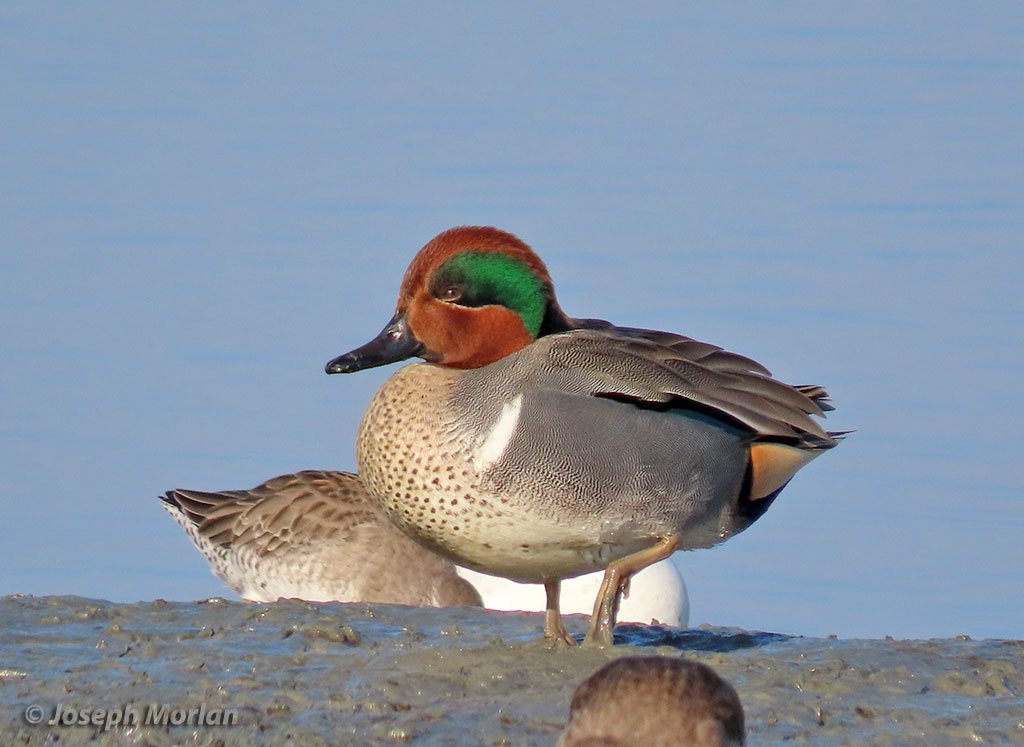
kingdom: Animalia
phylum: Chordata
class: Aves
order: Anseriformes
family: Anatidae
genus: Anas
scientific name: Anas crecca
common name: Eurasian teal
